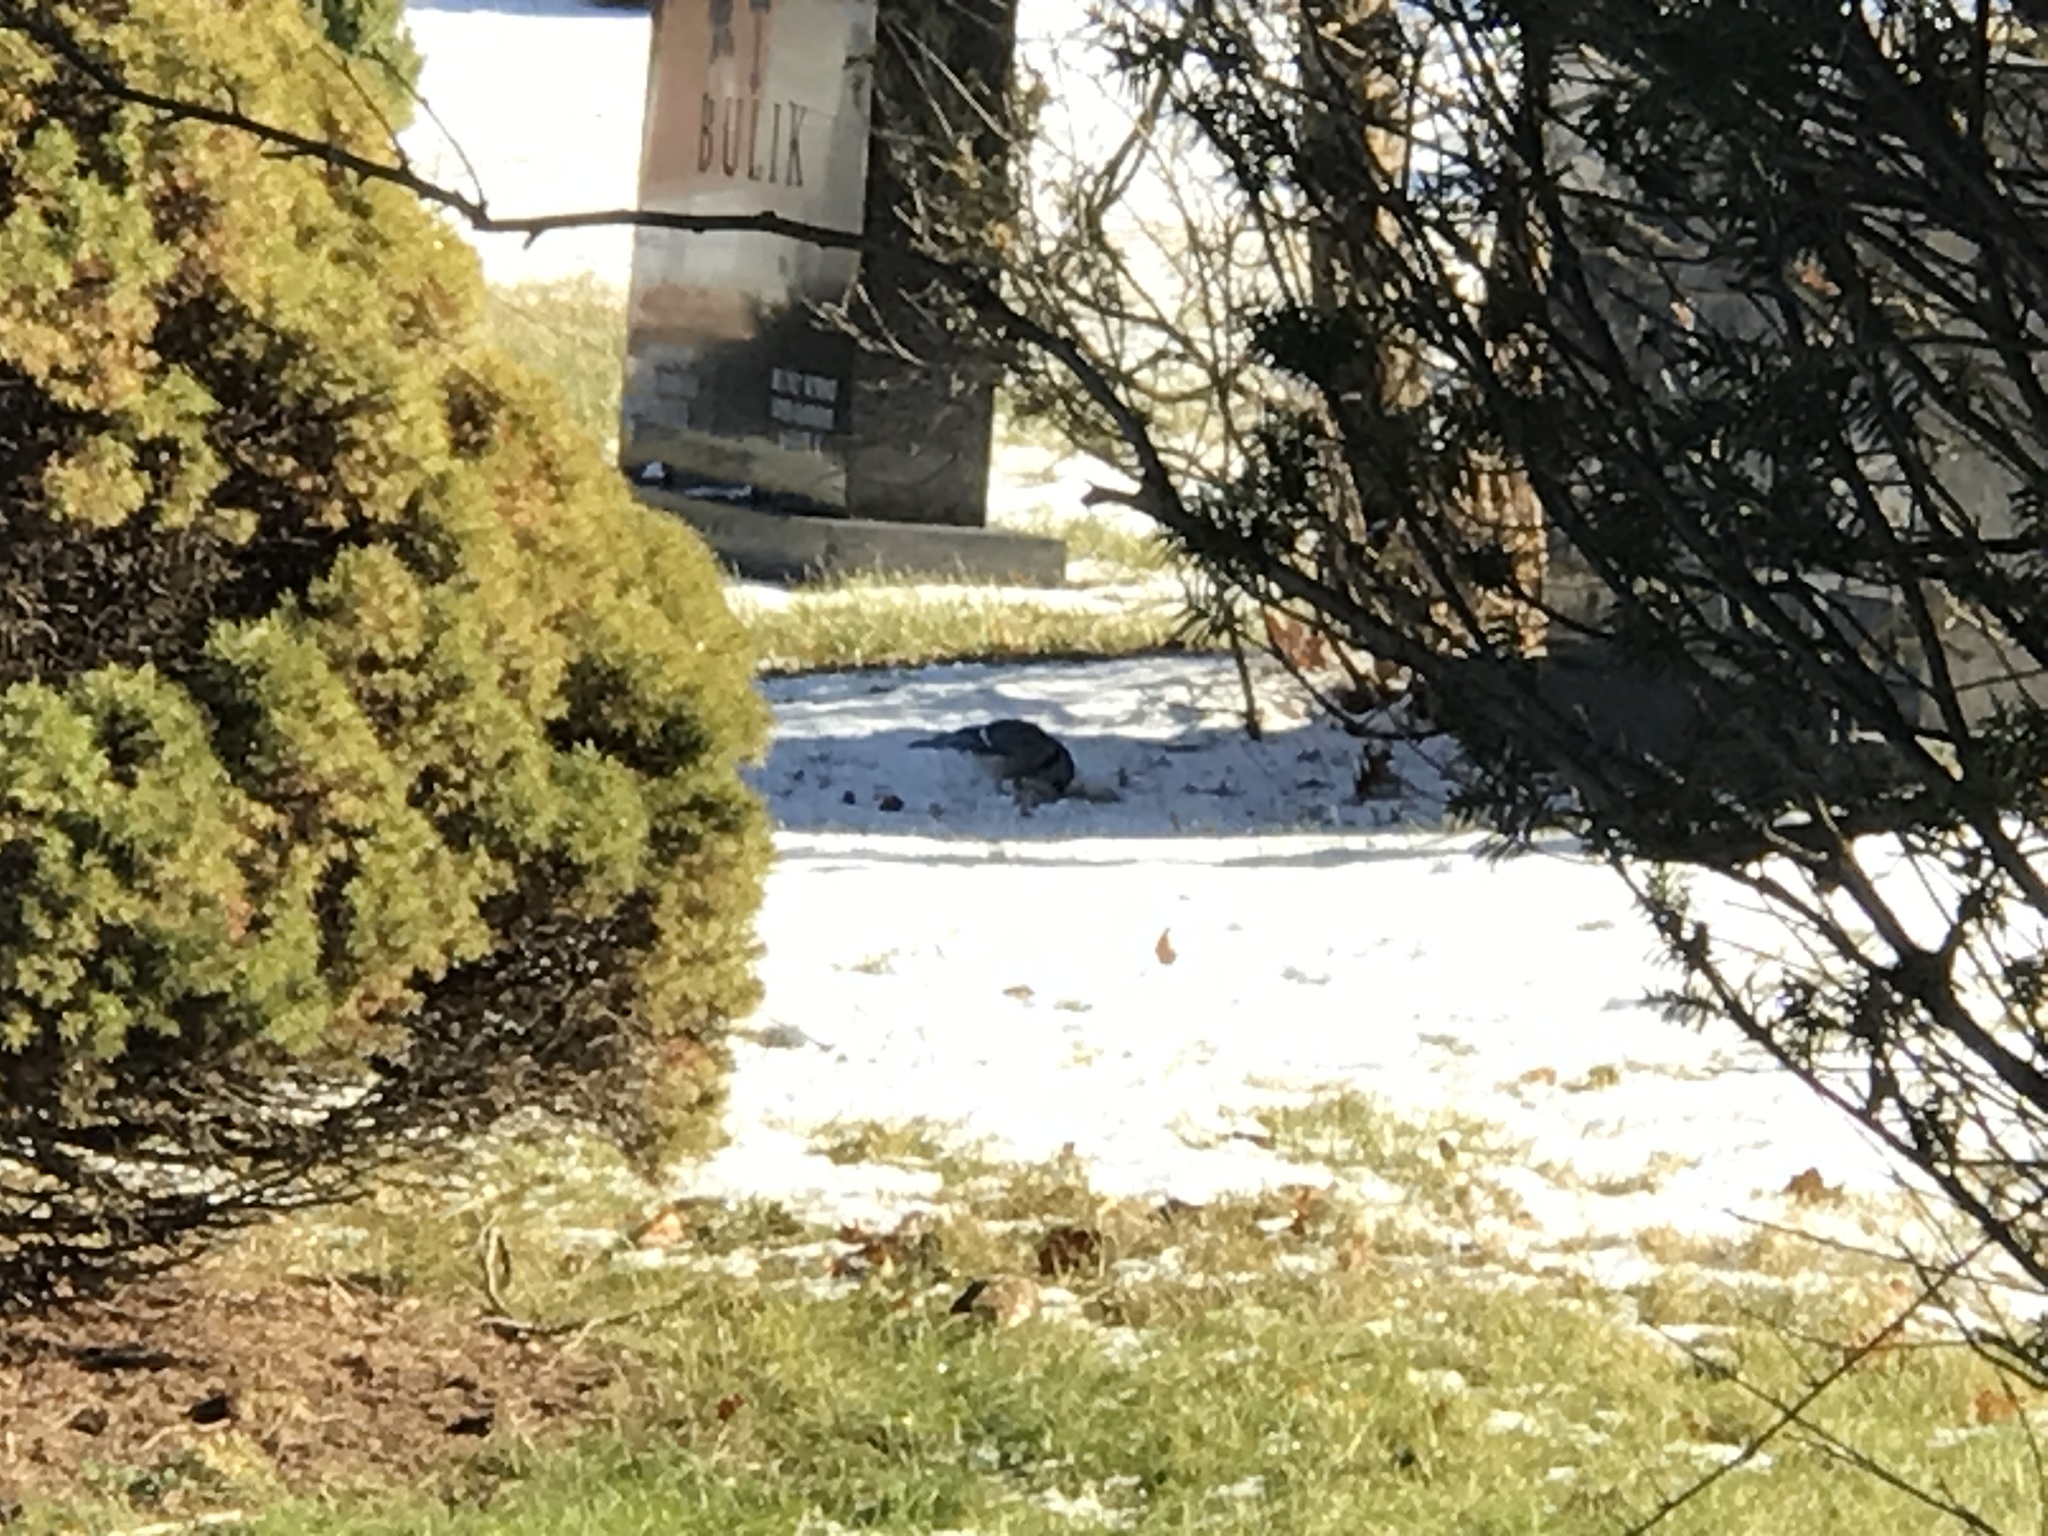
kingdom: Animalia
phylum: Chordata
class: Aves
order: Passeriformes
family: Corvidae
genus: Cyanocitta
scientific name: Cyanocitta cristata
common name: Blue jay
